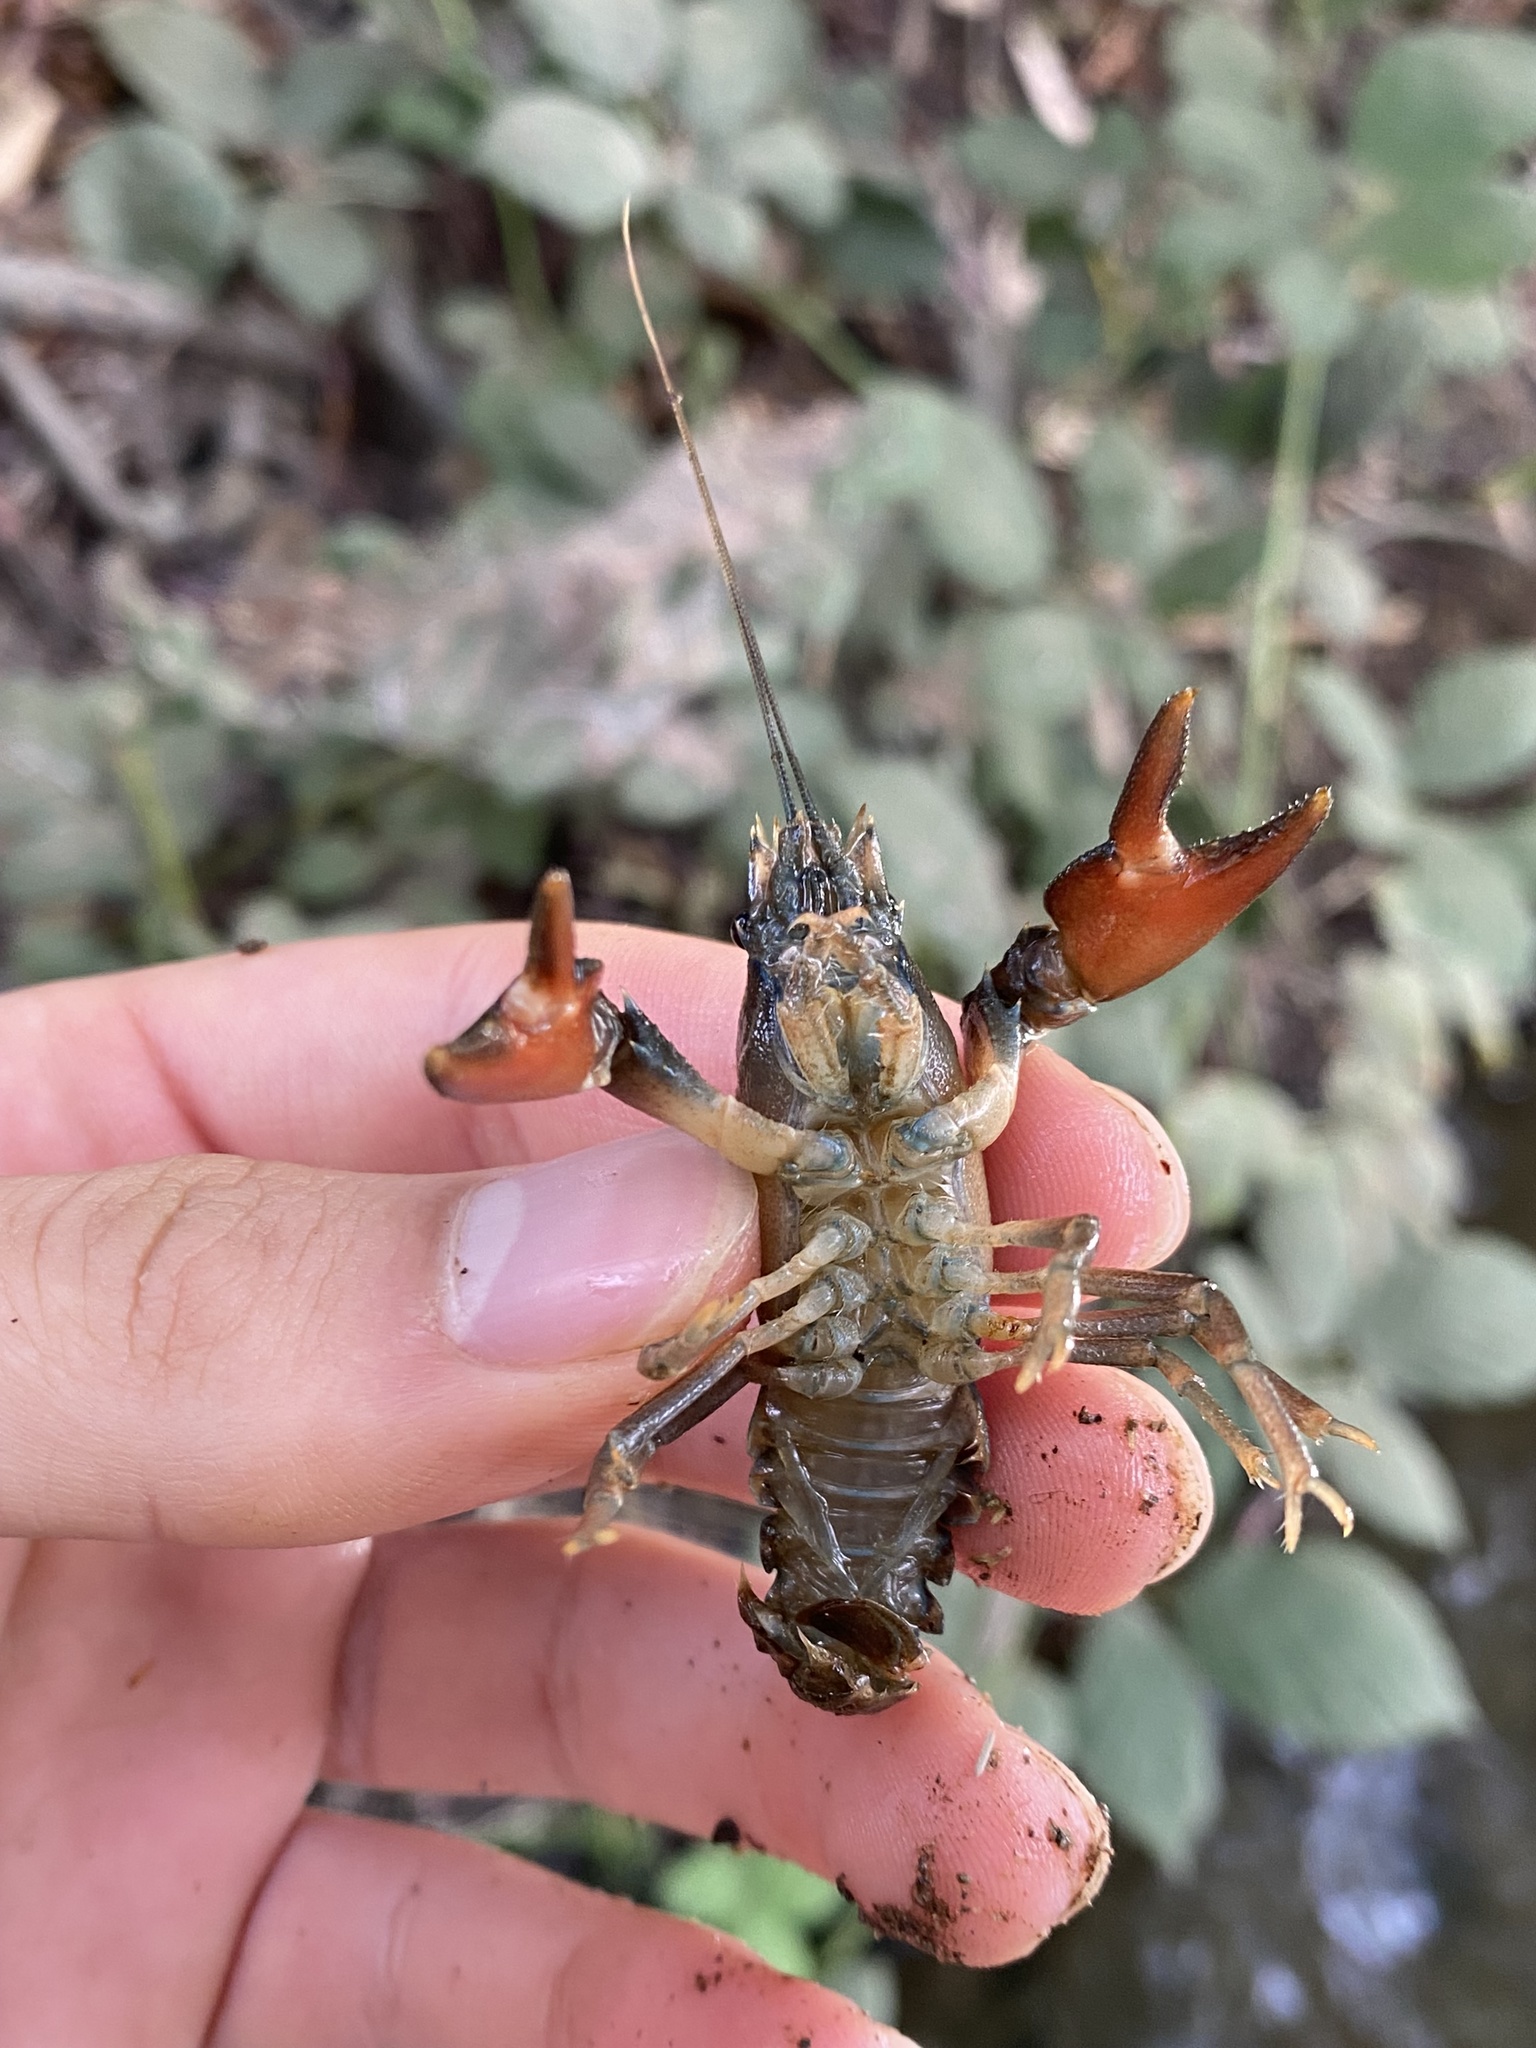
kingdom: Animalia
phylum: Arthropoda
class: Malacostraca
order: Decapoda
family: Astacidae
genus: Pacifastacus
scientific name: Pacifastacus leniusculus
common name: Signal crayfish
